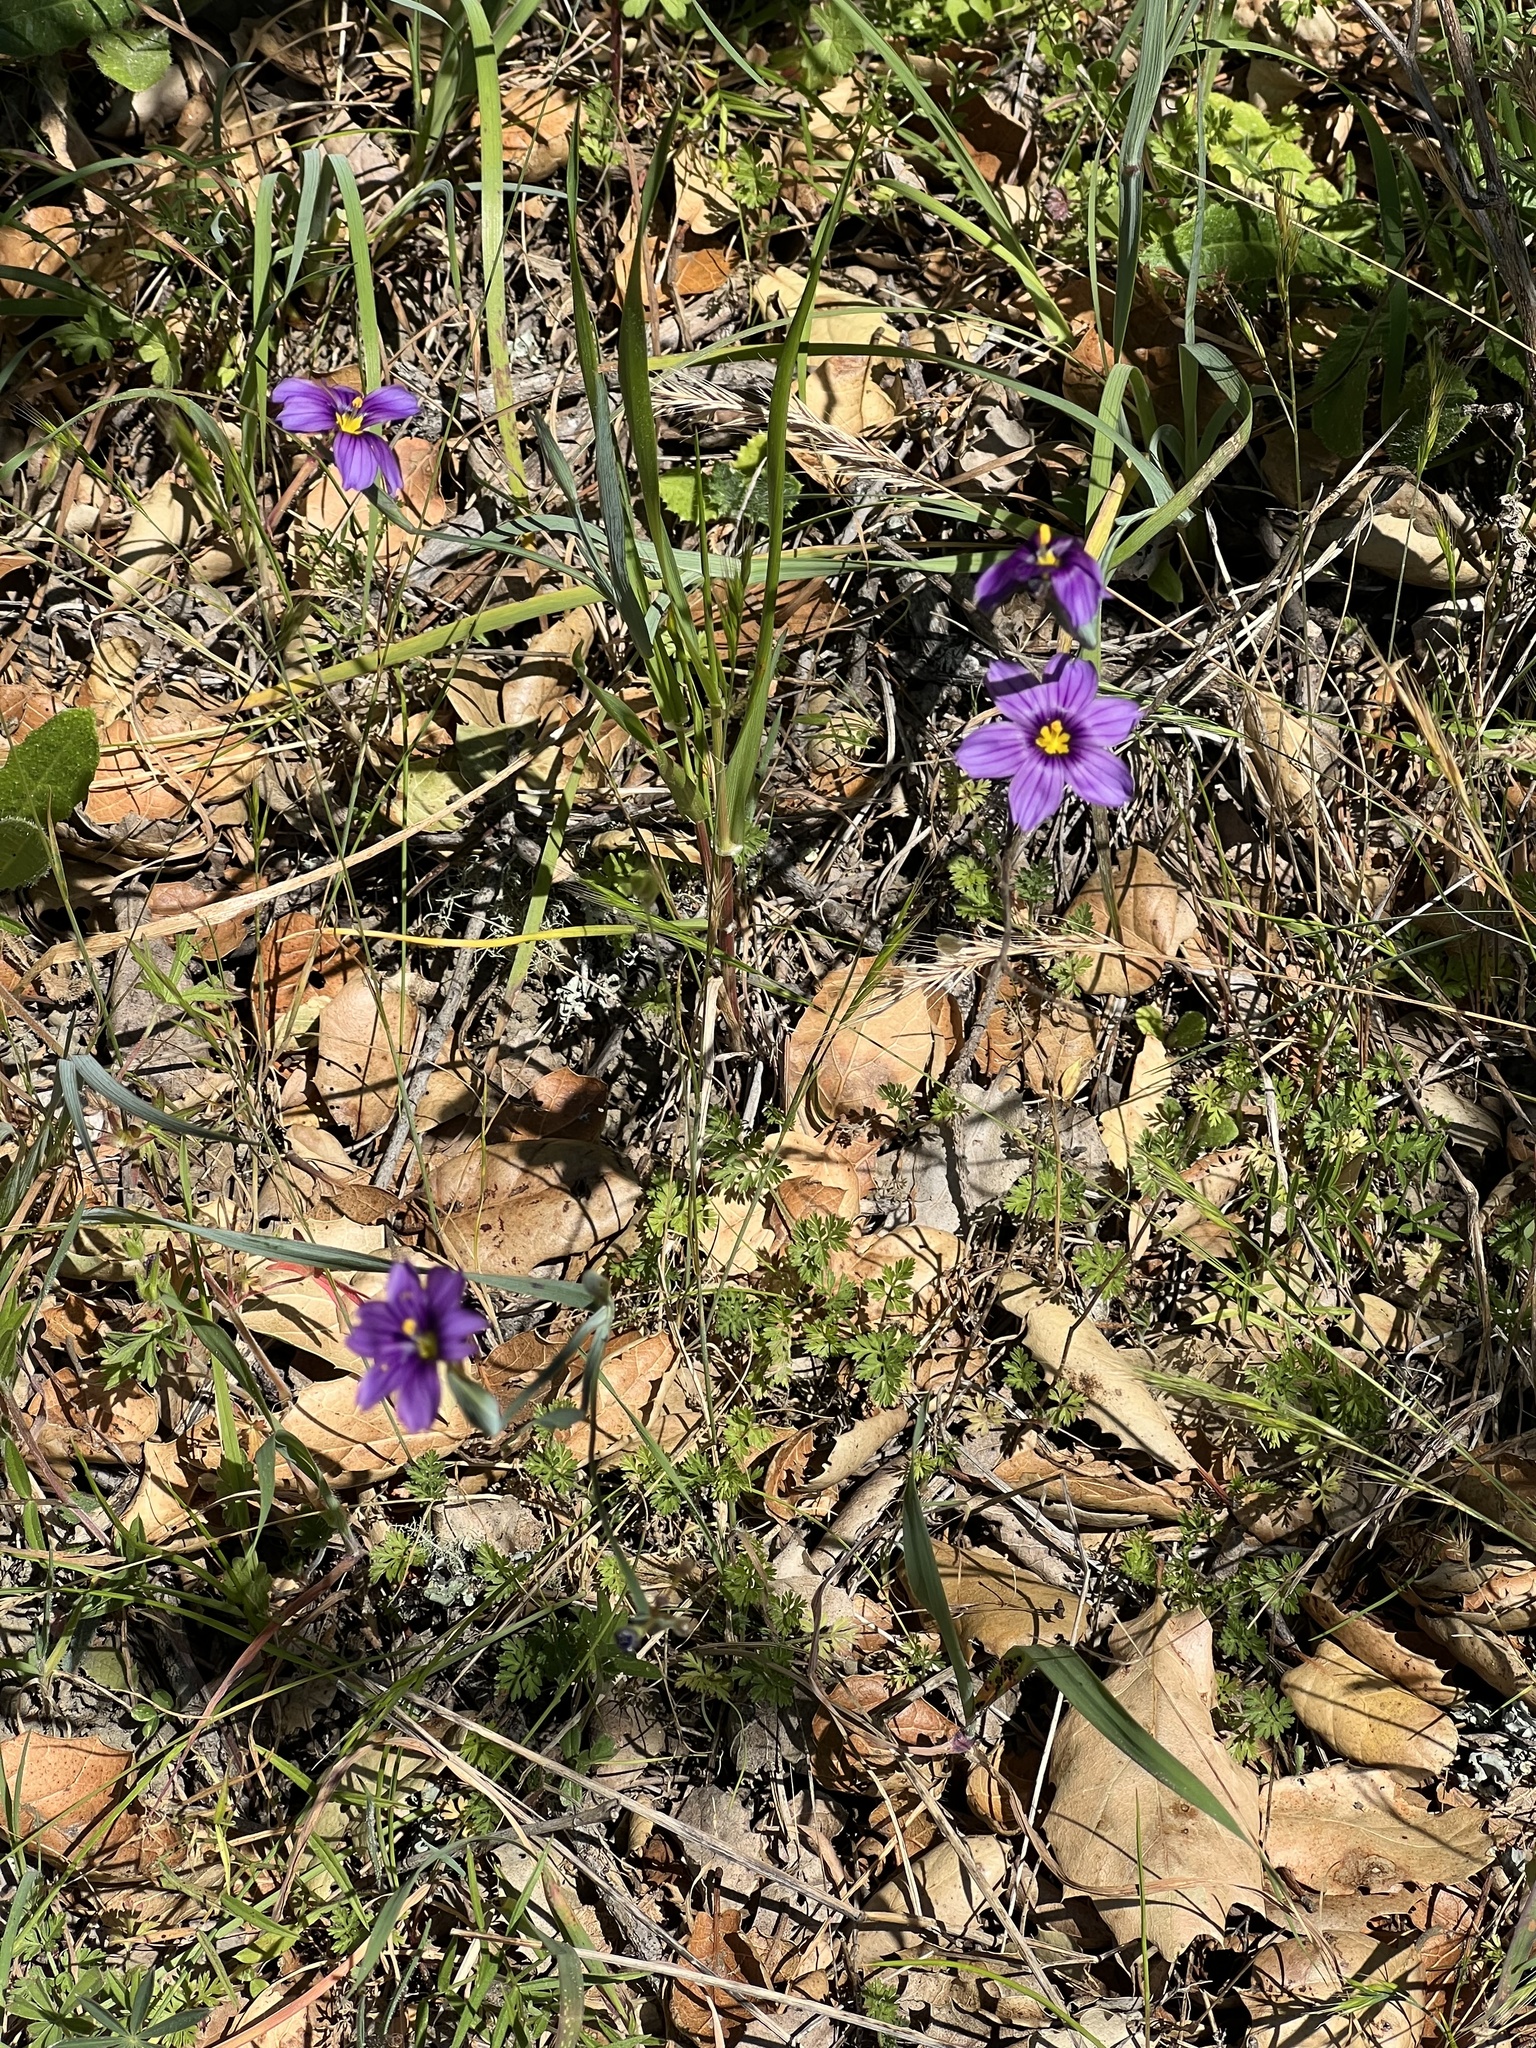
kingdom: Plantae
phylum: Tracheophyta
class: Liliopsida
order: Asparagales
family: Iridaceae
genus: Sisyrinchium
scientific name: Sisyrinchium bellum
